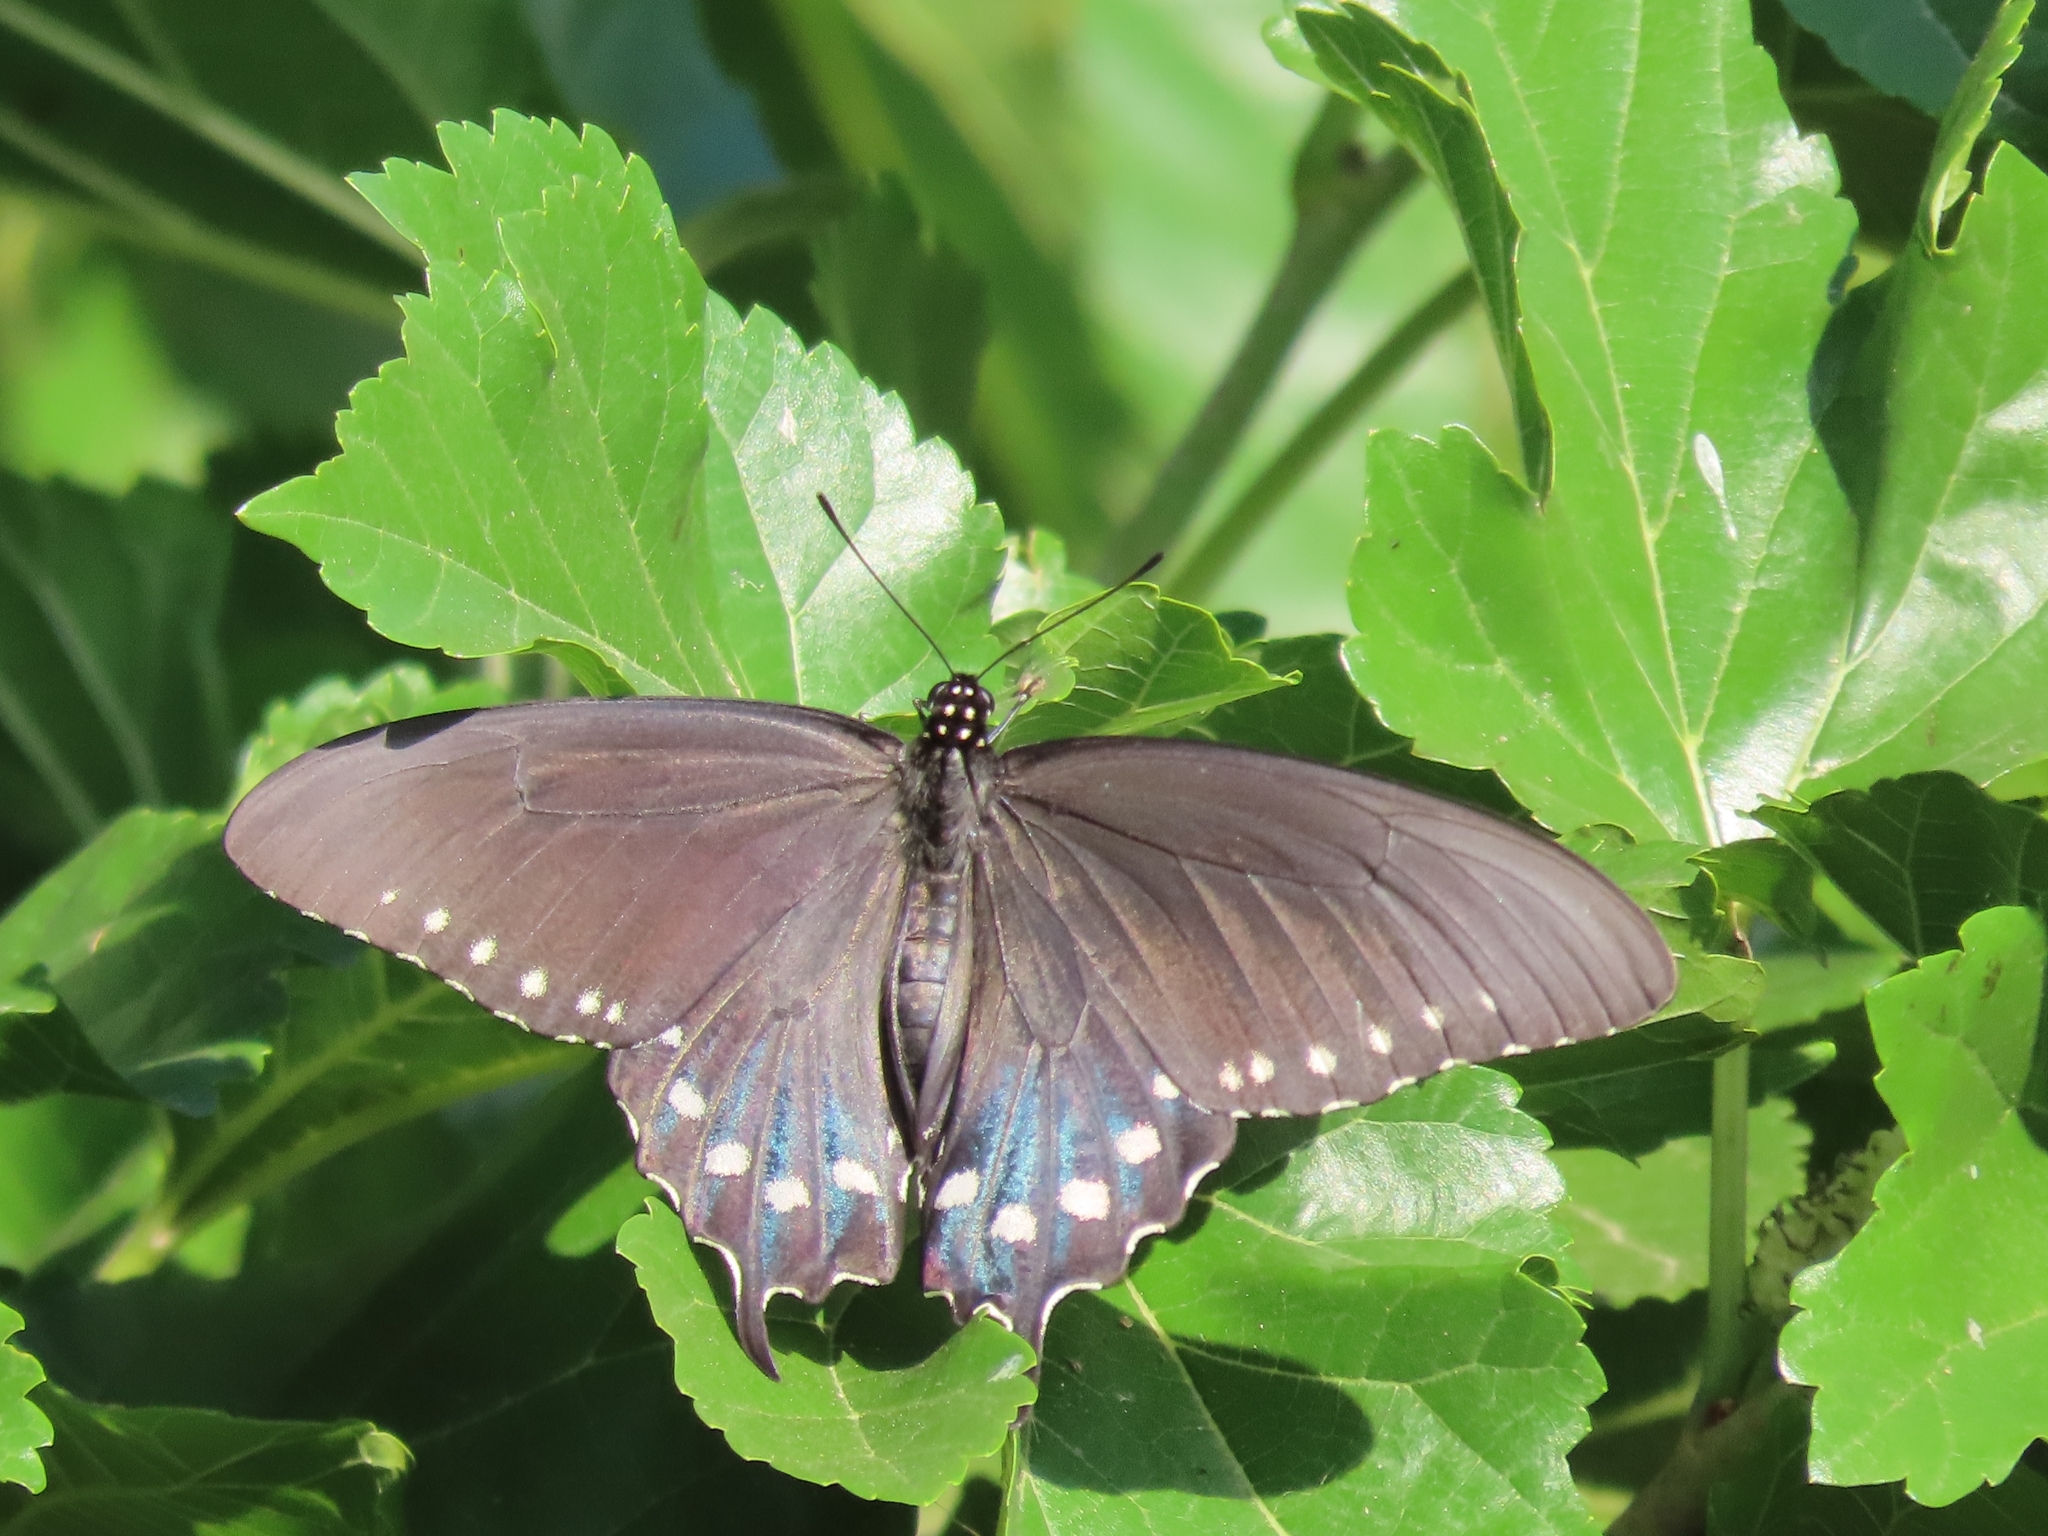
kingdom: Animalia
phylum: Arthropoda
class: Insecta
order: Lepidoptera
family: Papilionidae
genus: Battus
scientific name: Battus philenor
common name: Pipevine swallowtail
